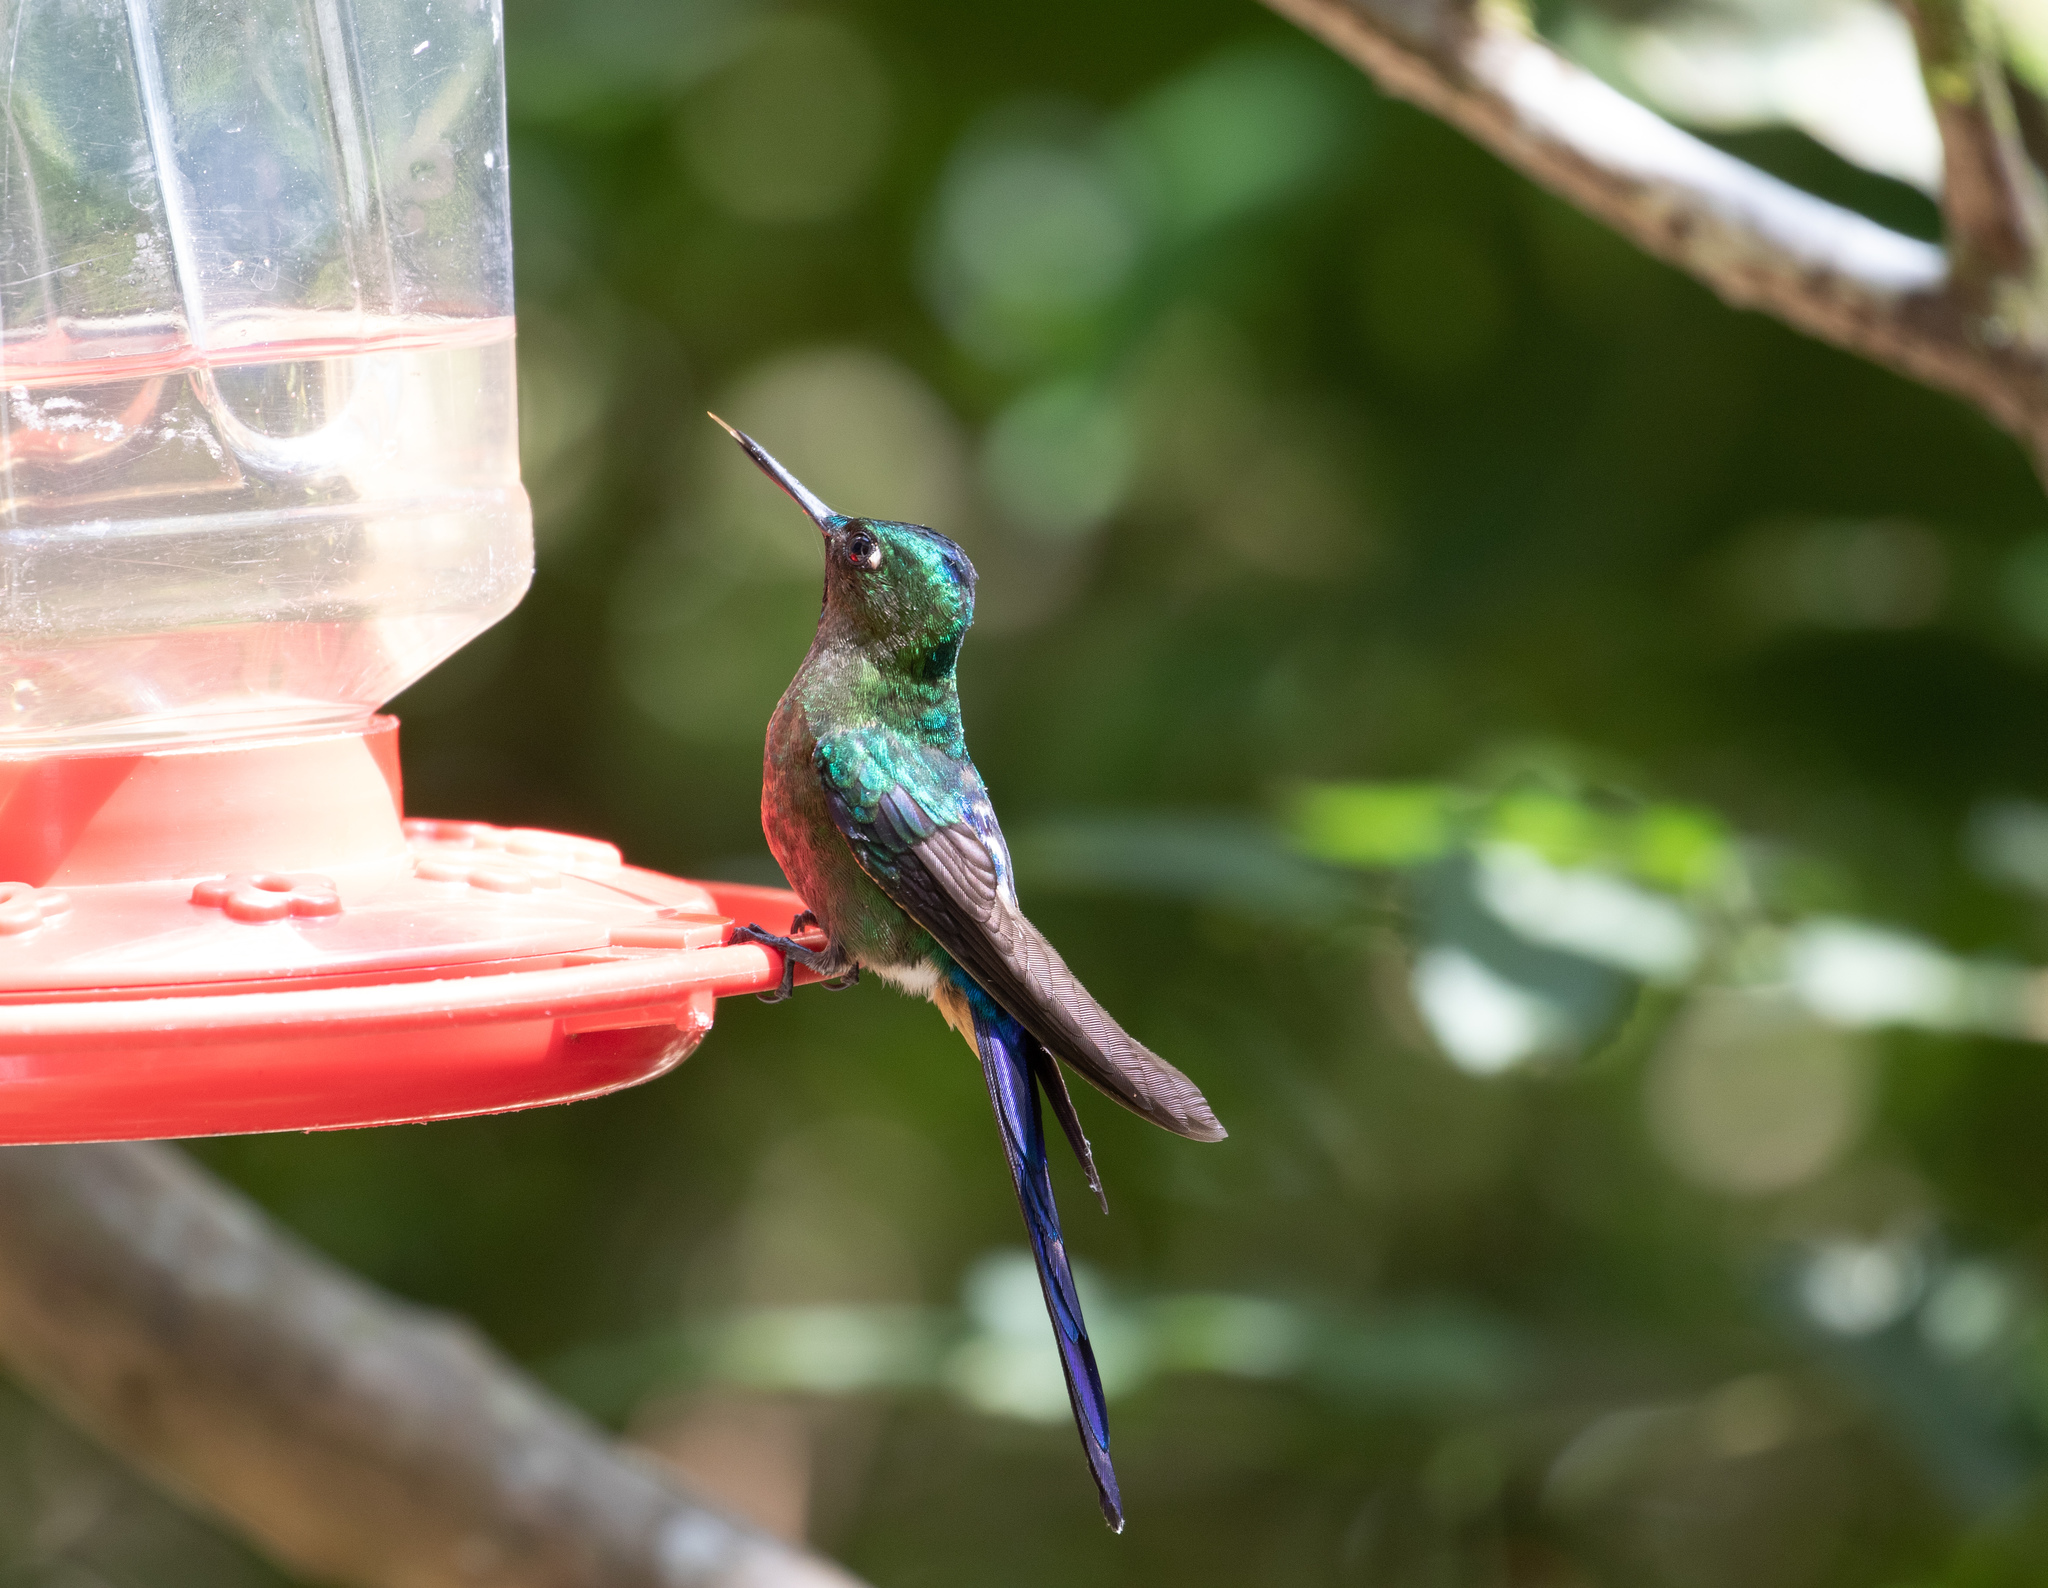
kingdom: Animalia
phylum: Chordata
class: Aves
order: Apodiformes
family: Trochilidae
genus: Aglaiocercus
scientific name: Aglaiocercus coelestis
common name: Violet-tailed sylph
